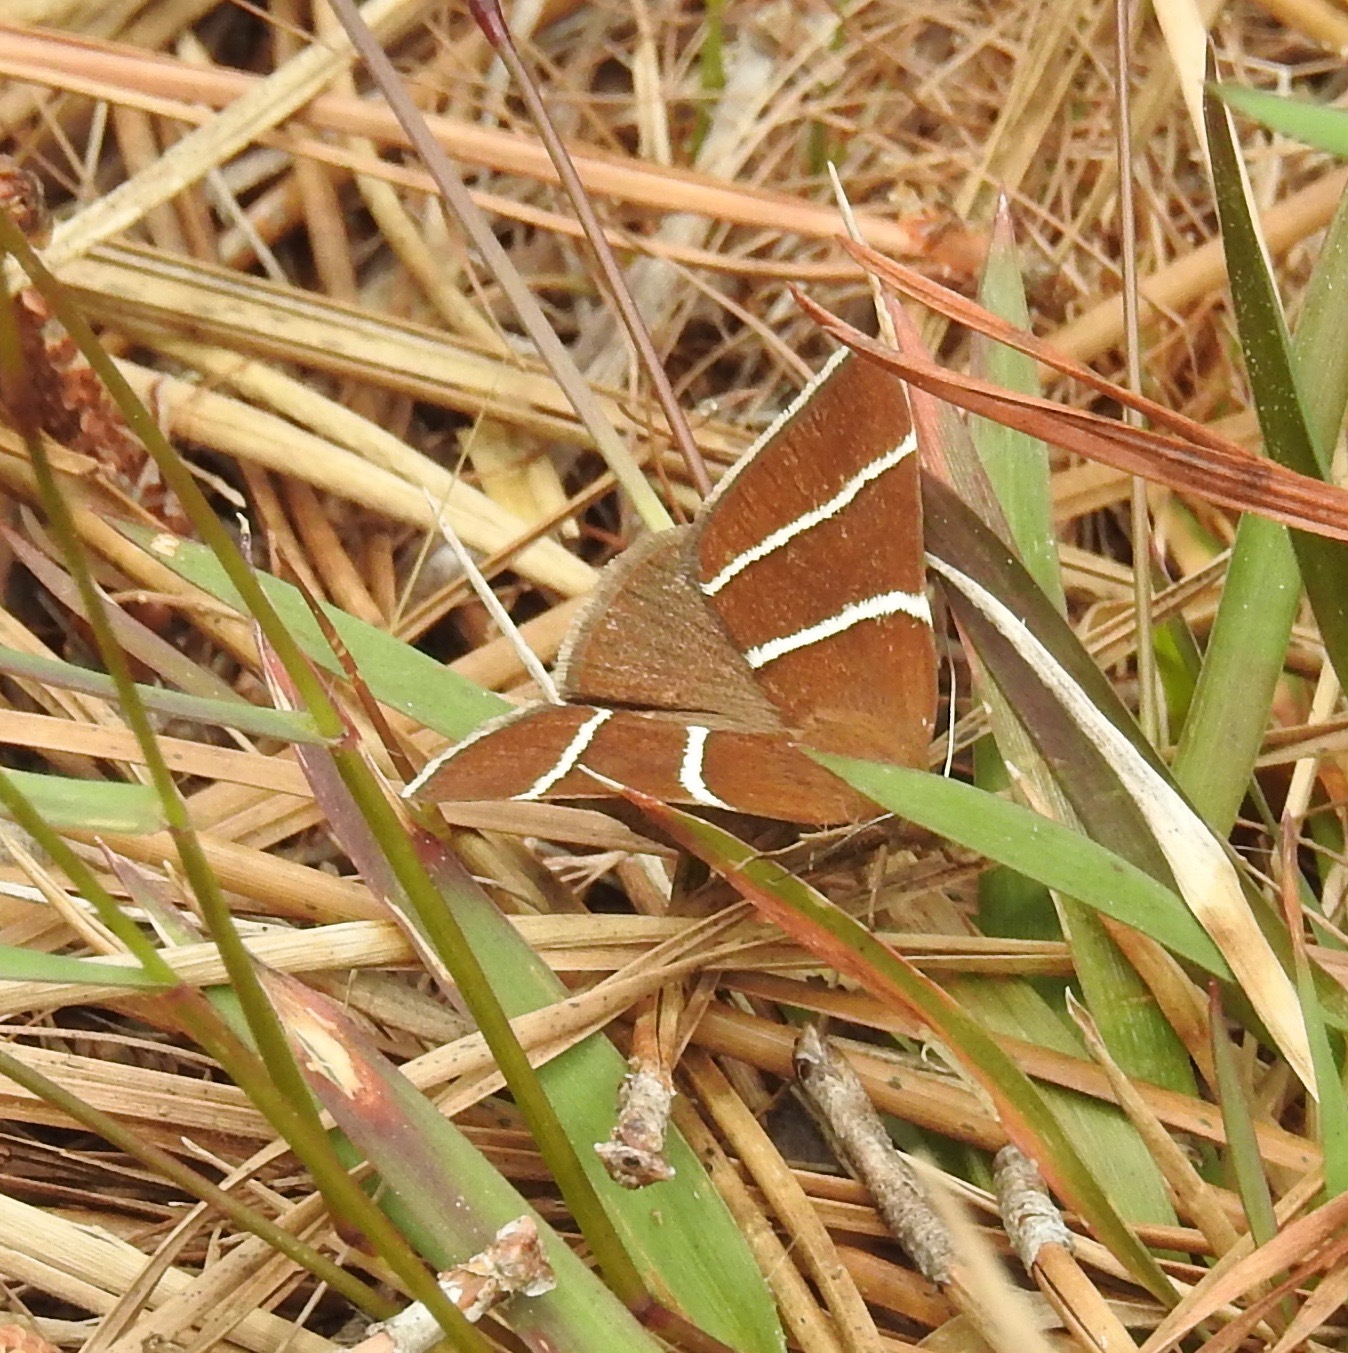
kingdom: Animalia
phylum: Arthropoda
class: Insecta
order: Lepidoptera
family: Erebidae
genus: Argyrostrotis
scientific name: Argyrostrotis quadrifilaris
